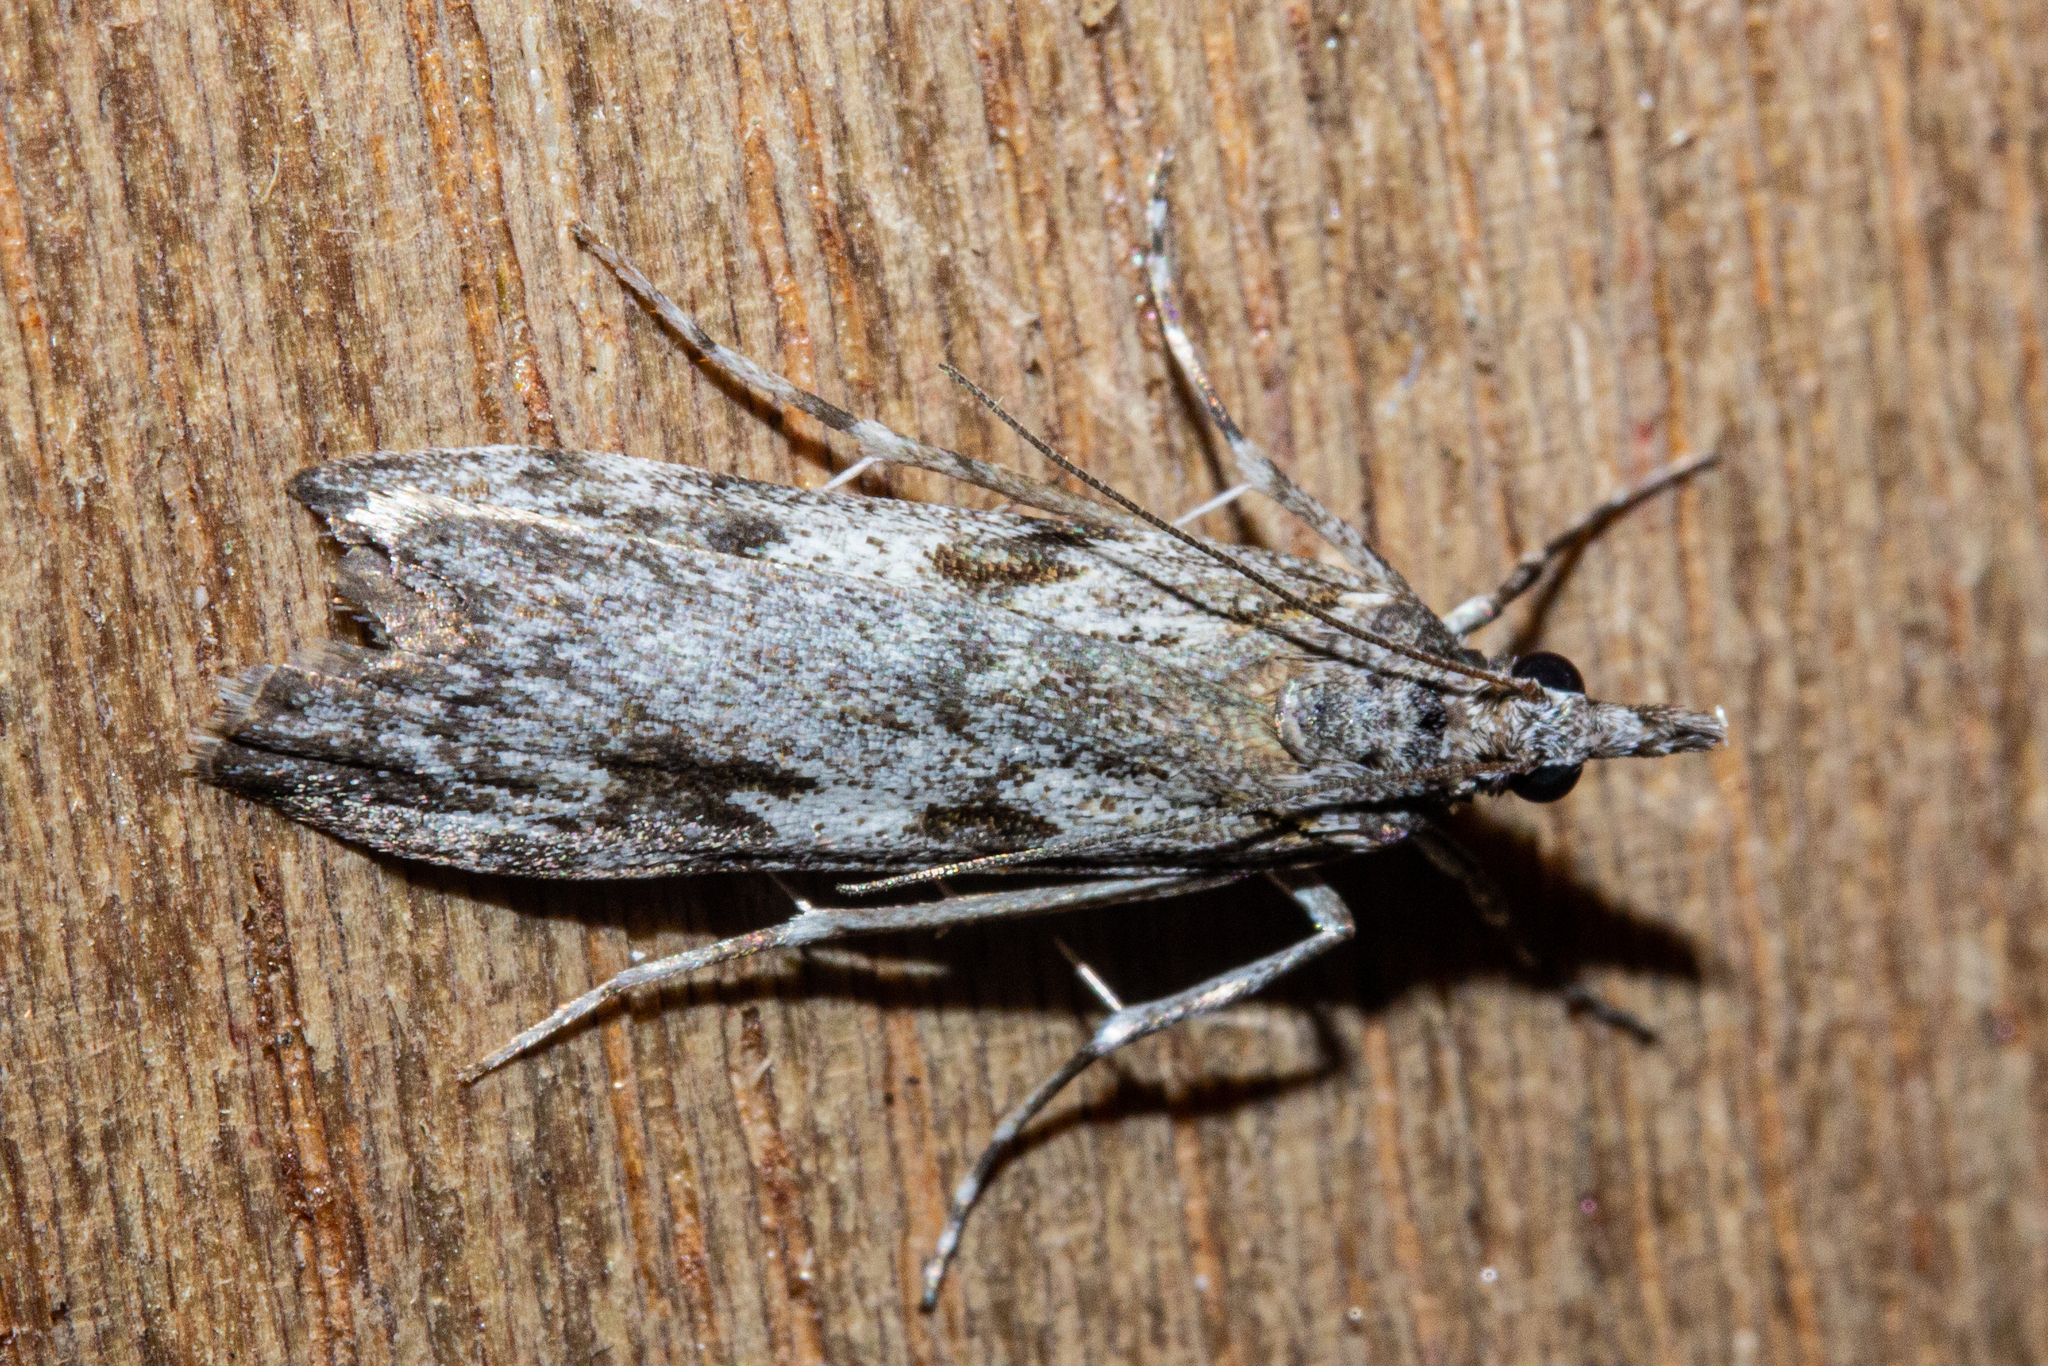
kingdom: Animalia
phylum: Arthropoda
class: Insecta
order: Lepidoptera
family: Crambidae
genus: Scoparia
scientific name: Scoparia halopis
